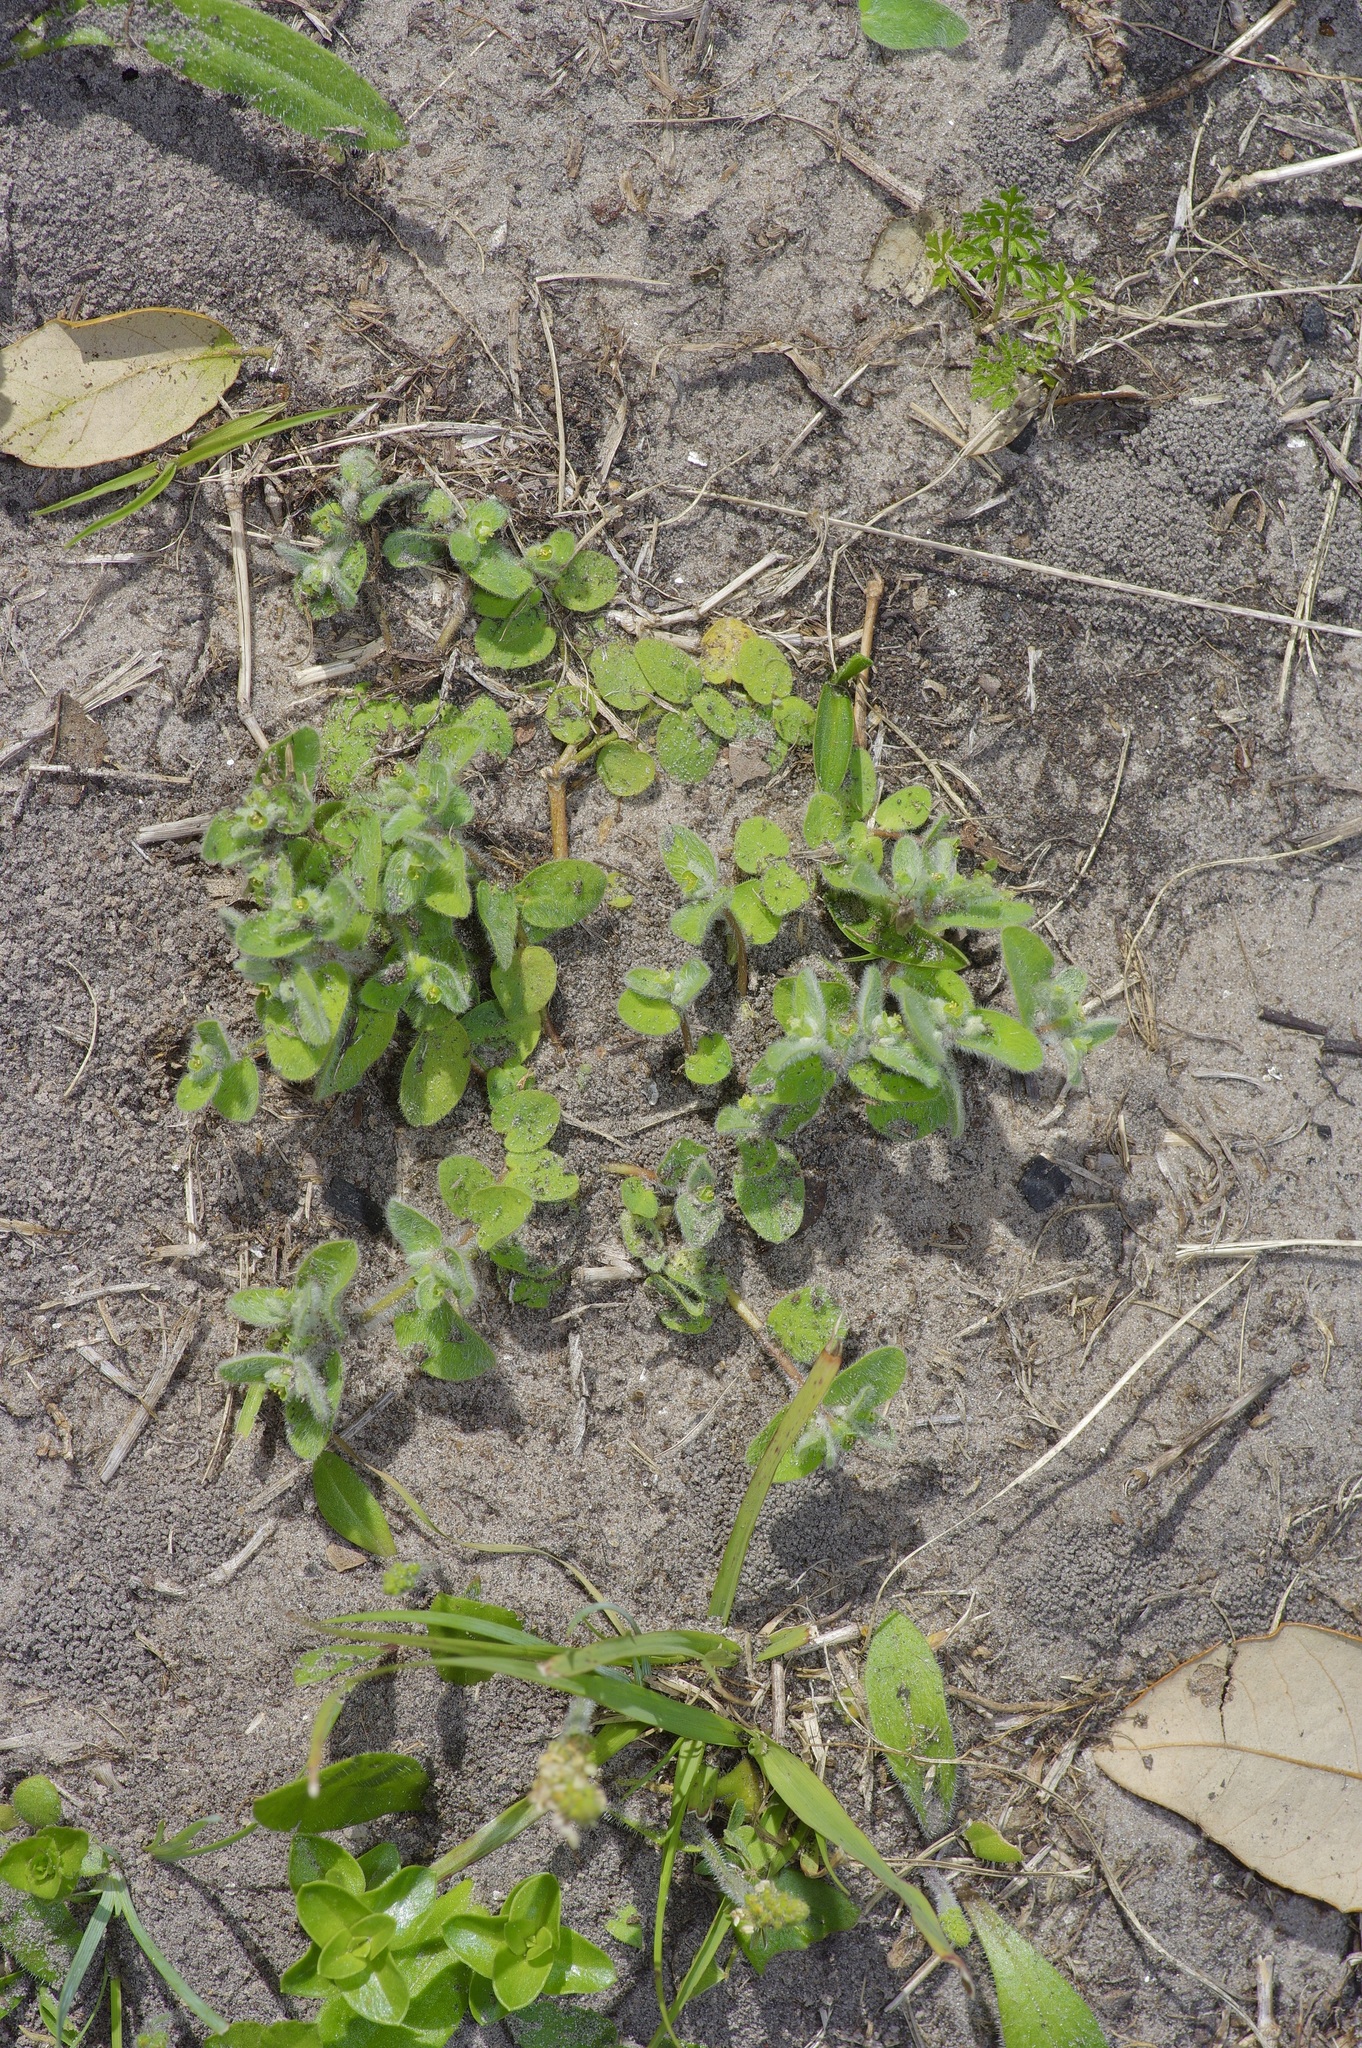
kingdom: Plantae
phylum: Tracheophyta
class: Magnoliopsida
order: Malpighiales
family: Euphorbiaceae
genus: Euphorbia
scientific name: Euphorbia innocua
